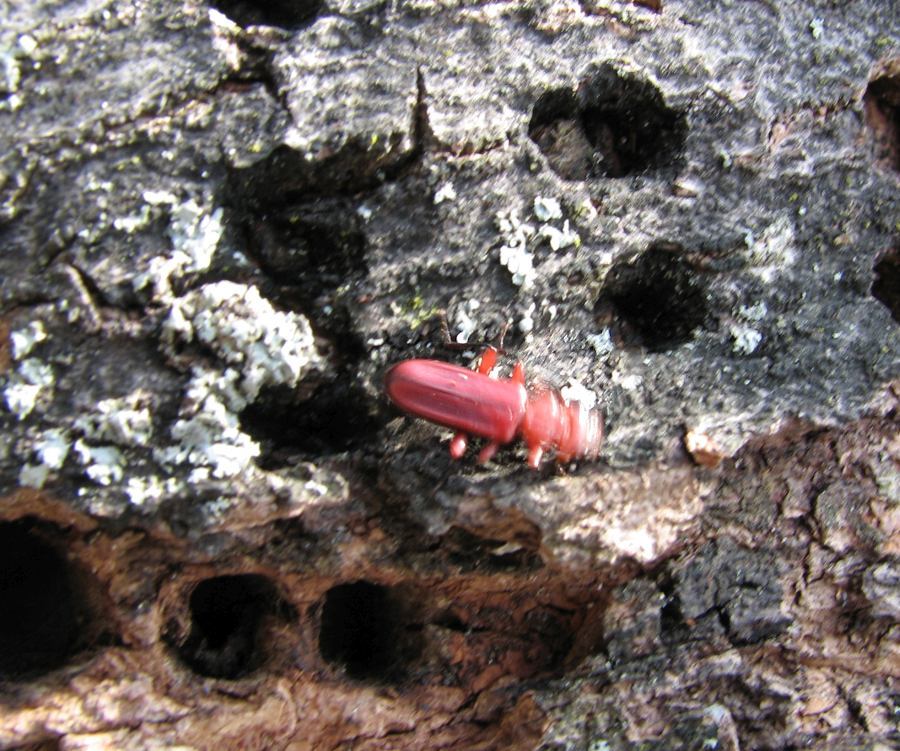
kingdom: Animalia
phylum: Arthropoda
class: Insecta
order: Coleoptera
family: Cucujidae
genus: Cucujus
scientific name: Cucujus clavipes
